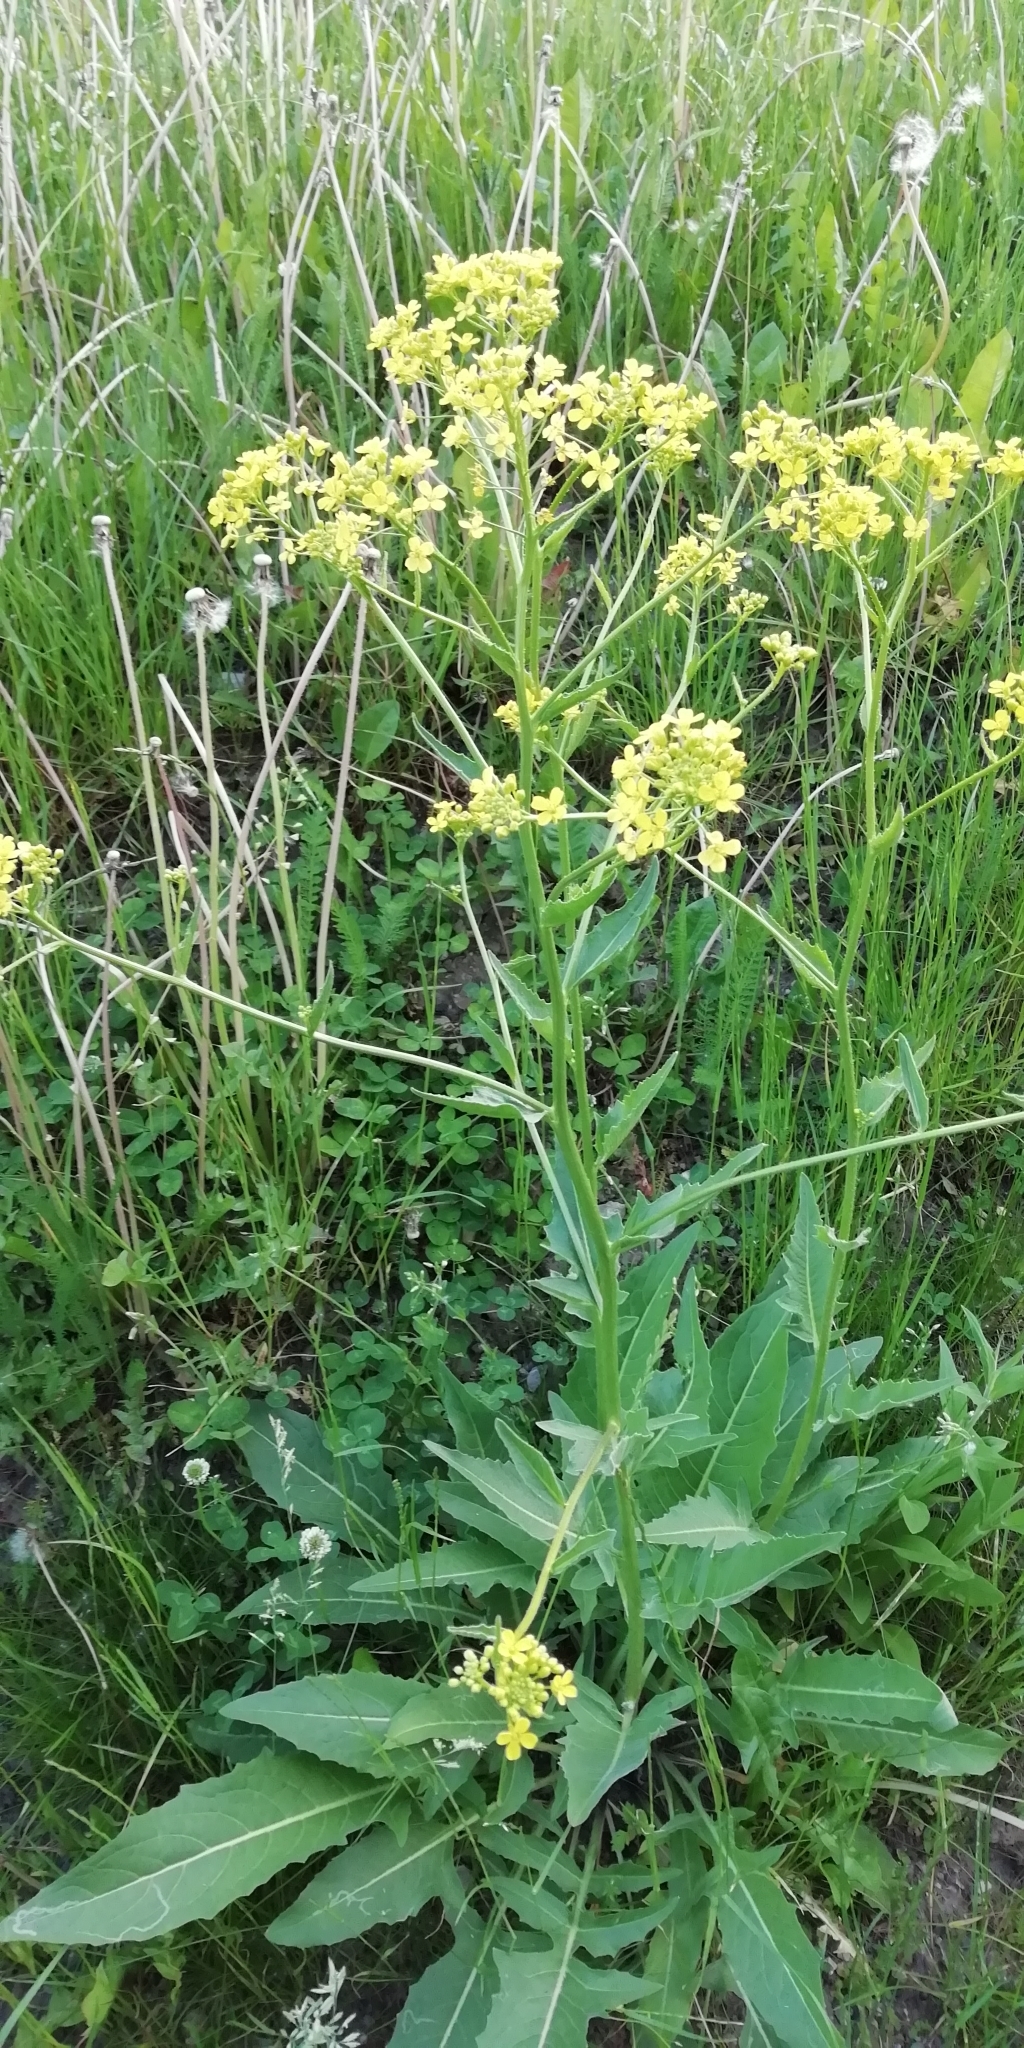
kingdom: Plantae
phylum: Tracheophyta
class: Magnoliopsida
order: Brassicales
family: Brassicaceae
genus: Bunias
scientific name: Bunias orientalis
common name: Warty-cabbage
